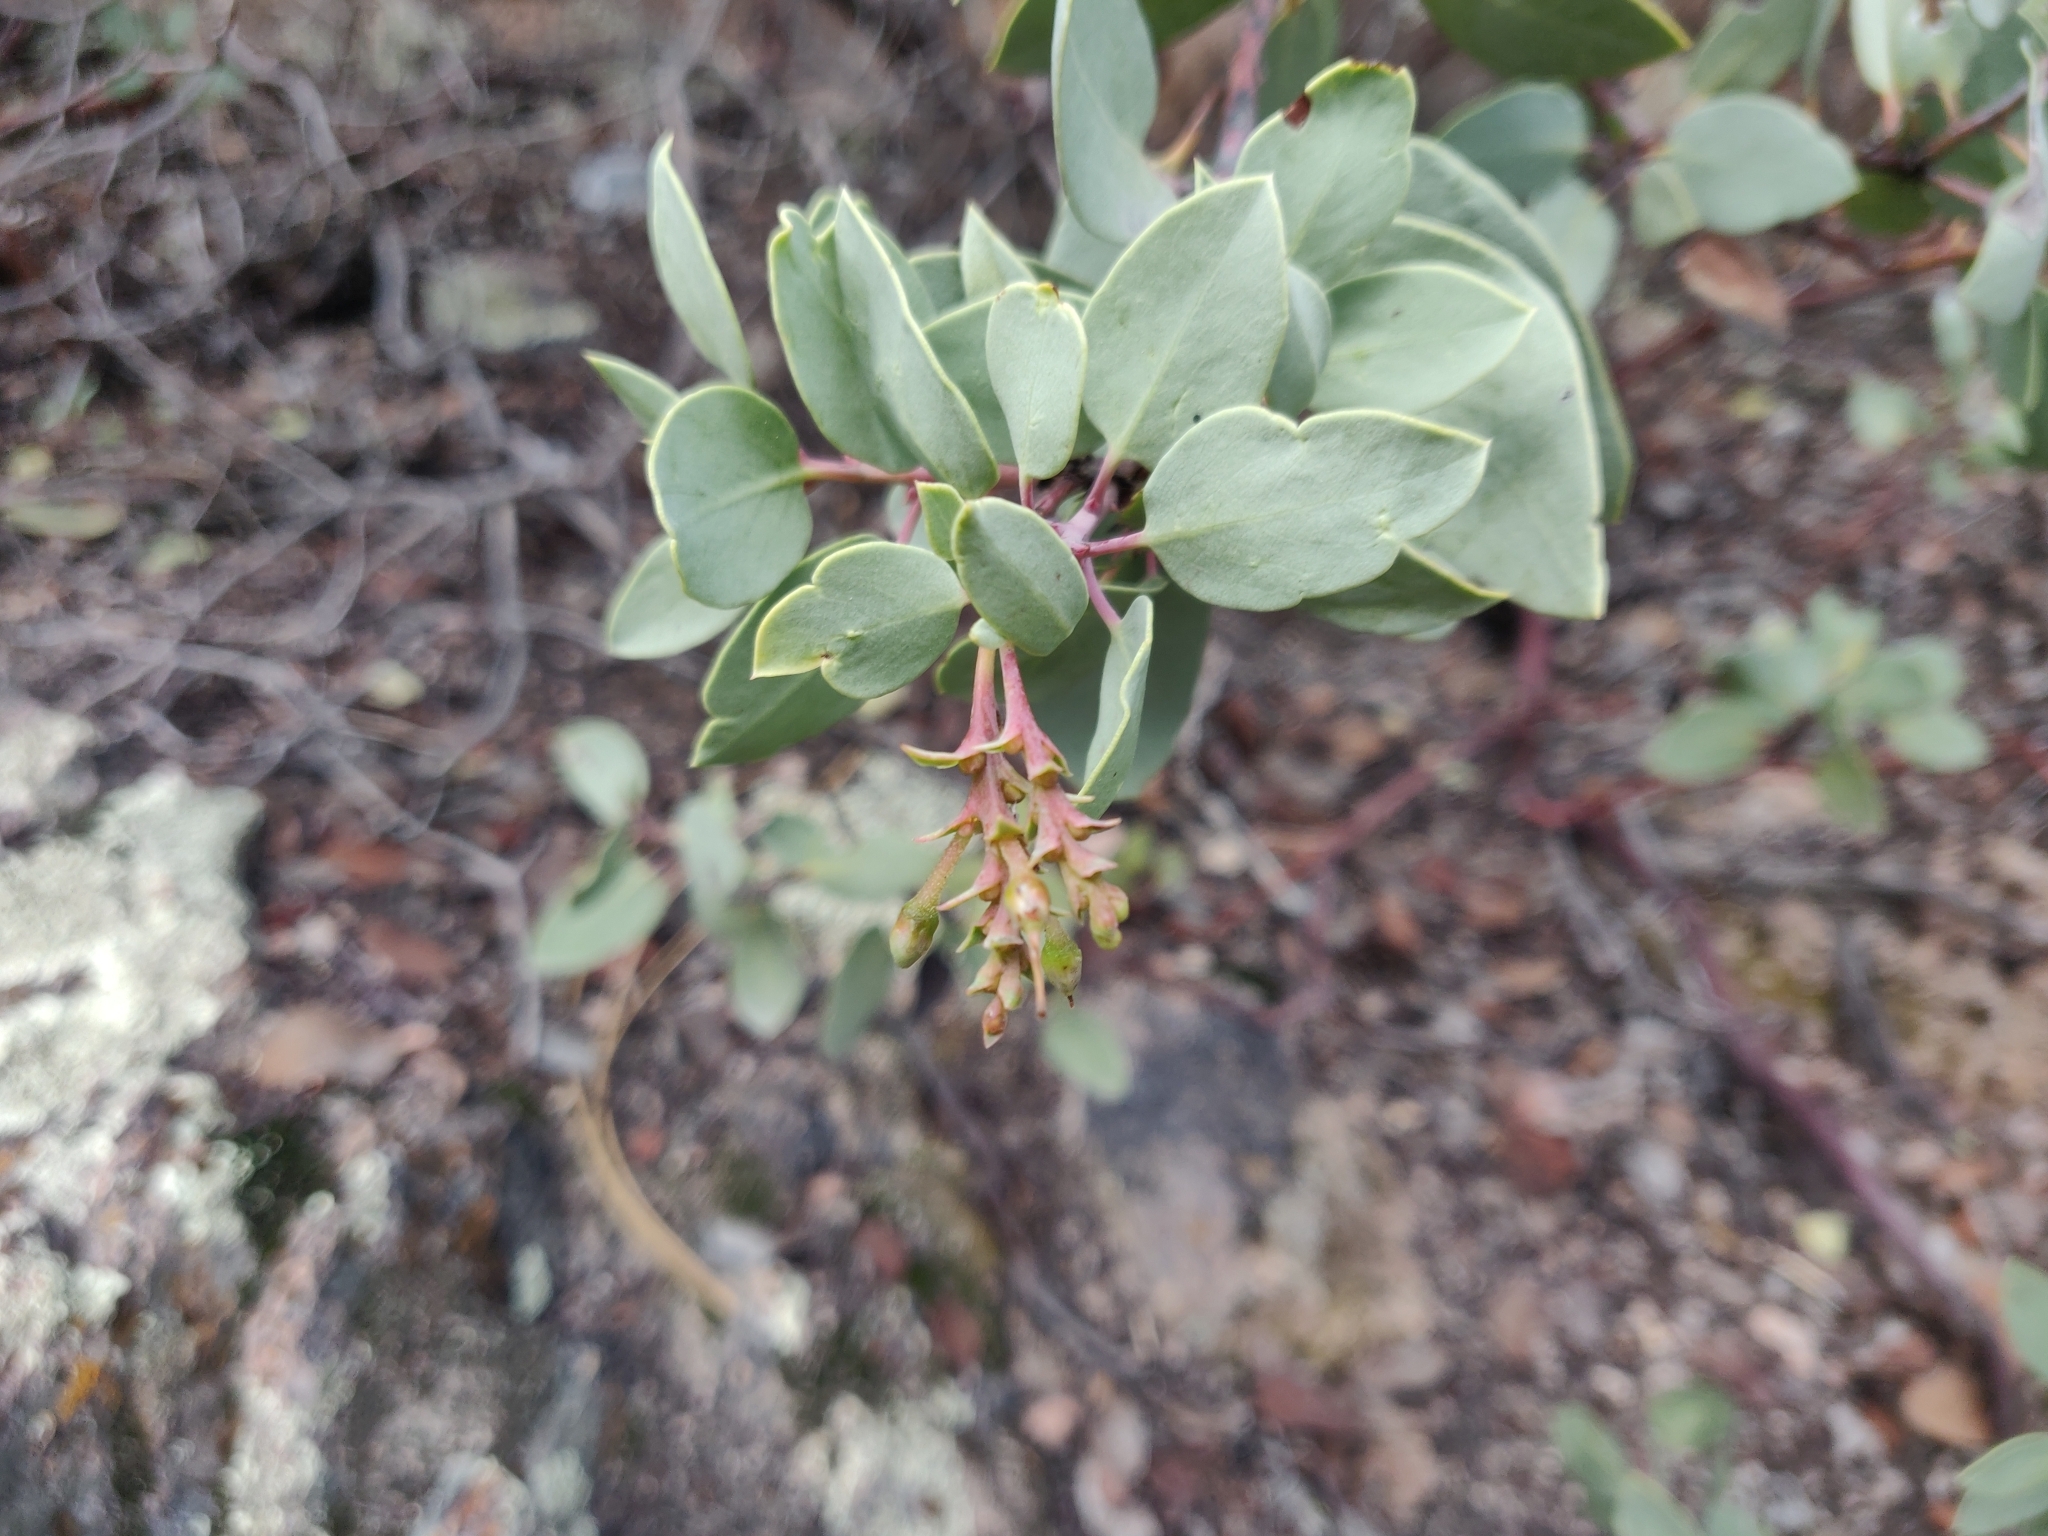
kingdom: Plantae
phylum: Tracheophyta
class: Magnoliopsida
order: Ericales
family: Ericaceae
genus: Arctostaphylos
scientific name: Arctostaphylos glauca
